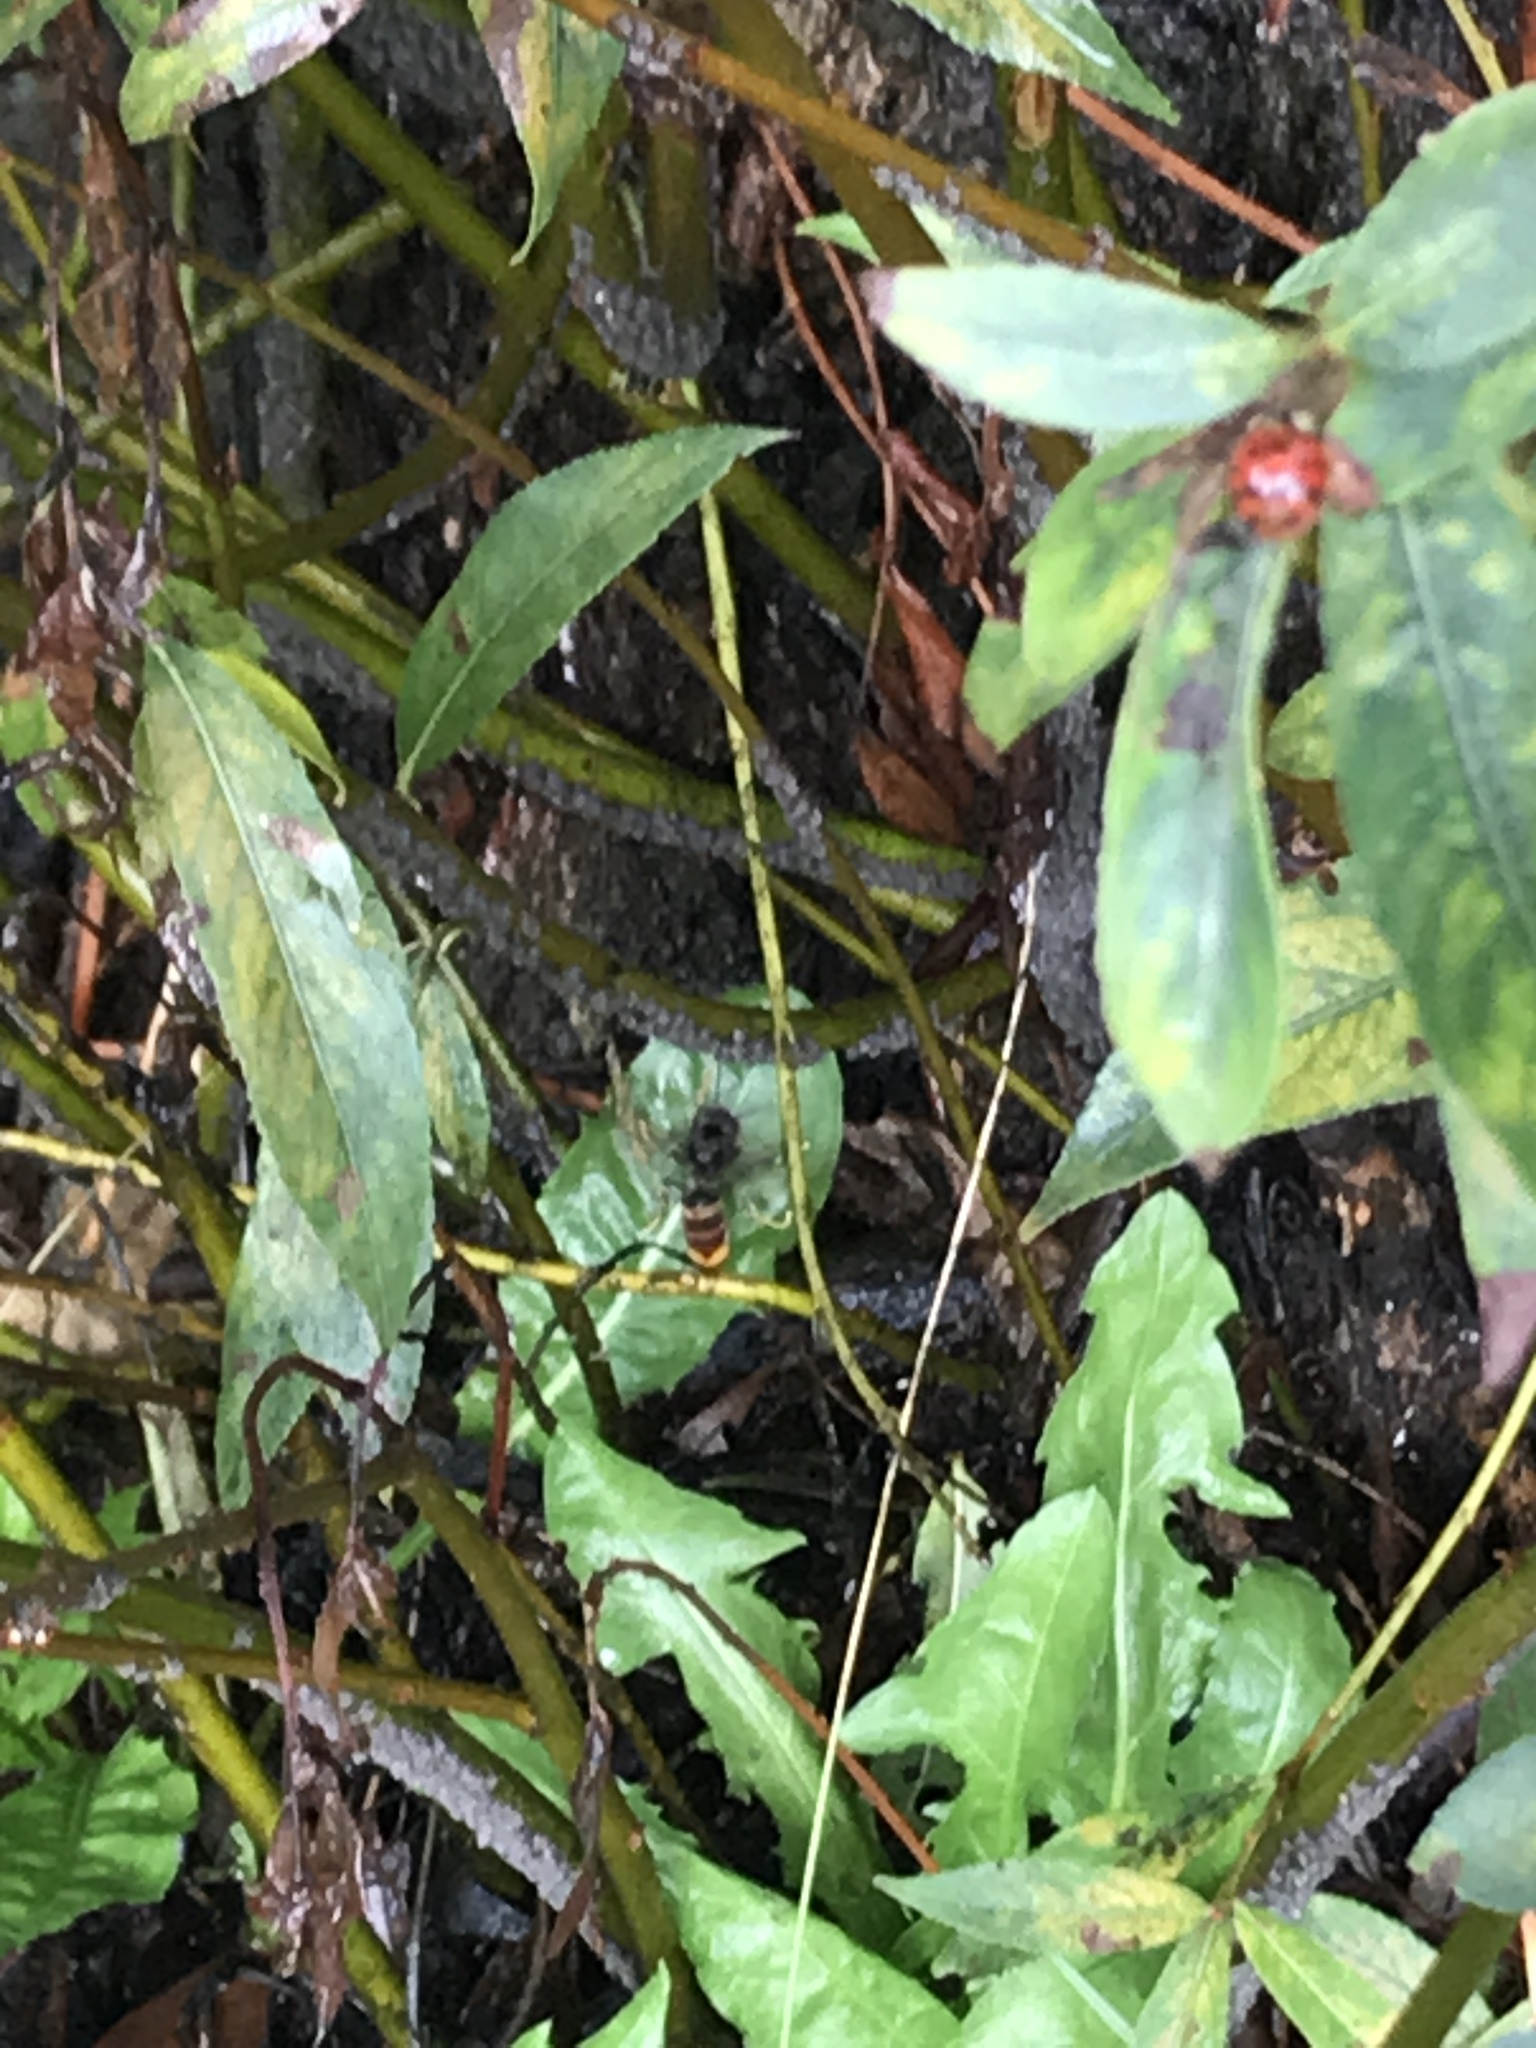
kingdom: Animalia
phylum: Arthropoda
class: Insecta
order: Hymenoptera
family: Vespidae
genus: Vespa
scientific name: Vespa velutina
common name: Asian hornet
